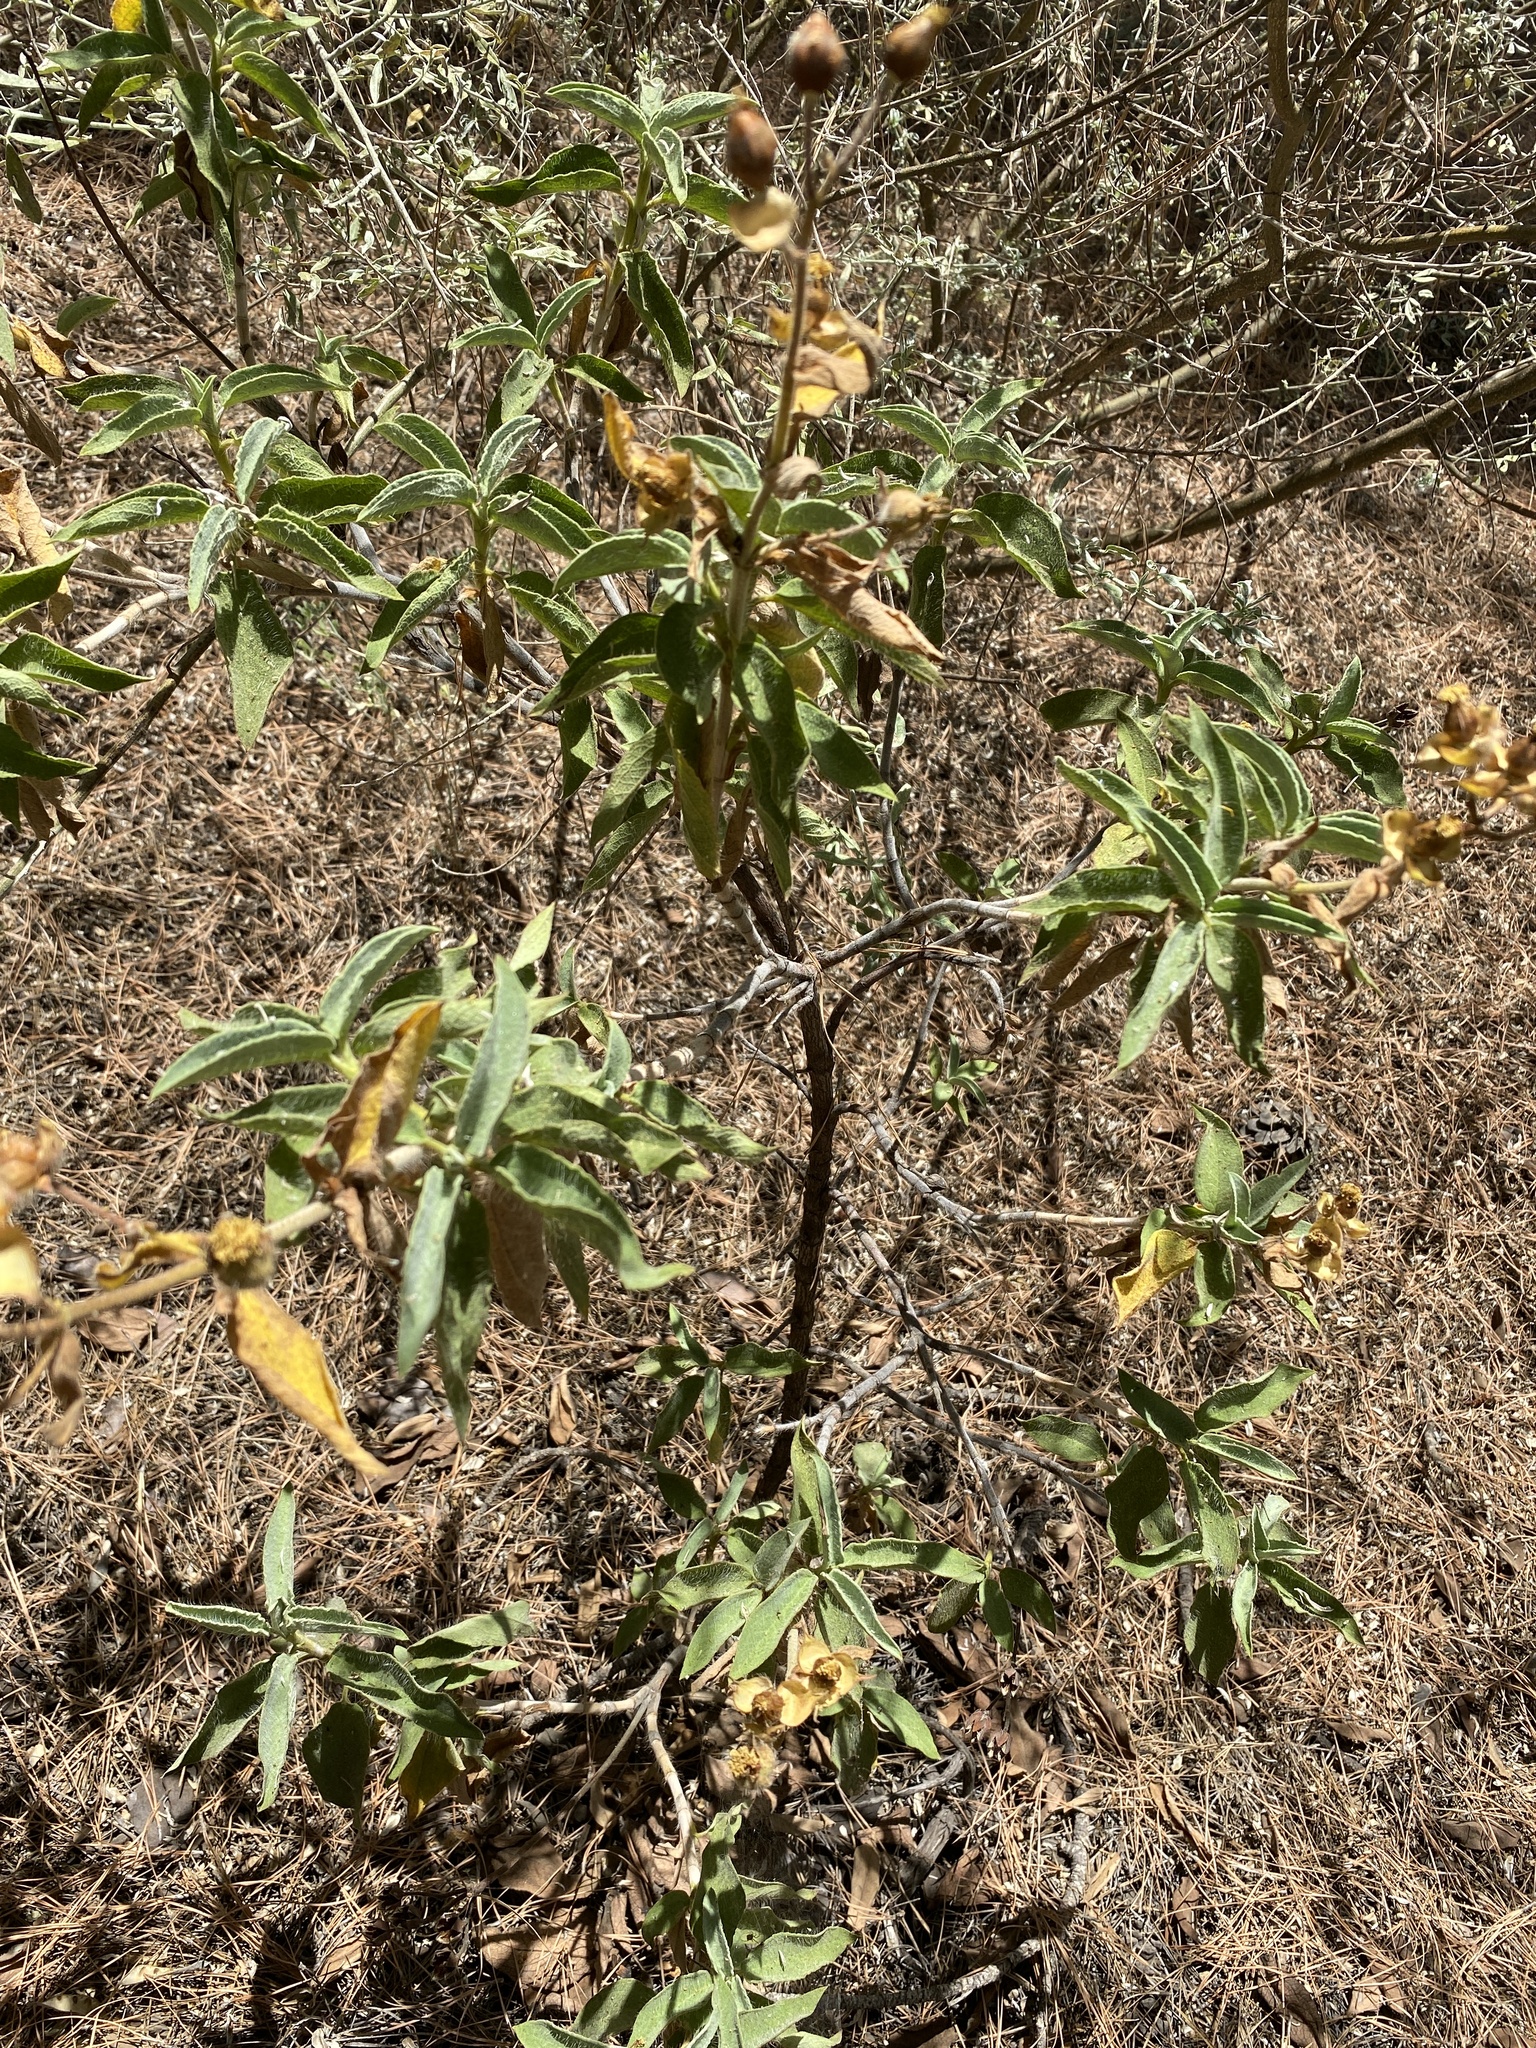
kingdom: Plantae
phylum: Tracheophyta
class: Magnoliopsida
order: Malvales
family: Cistaceae
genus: Cistus
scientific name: Cistus symphytifolius
